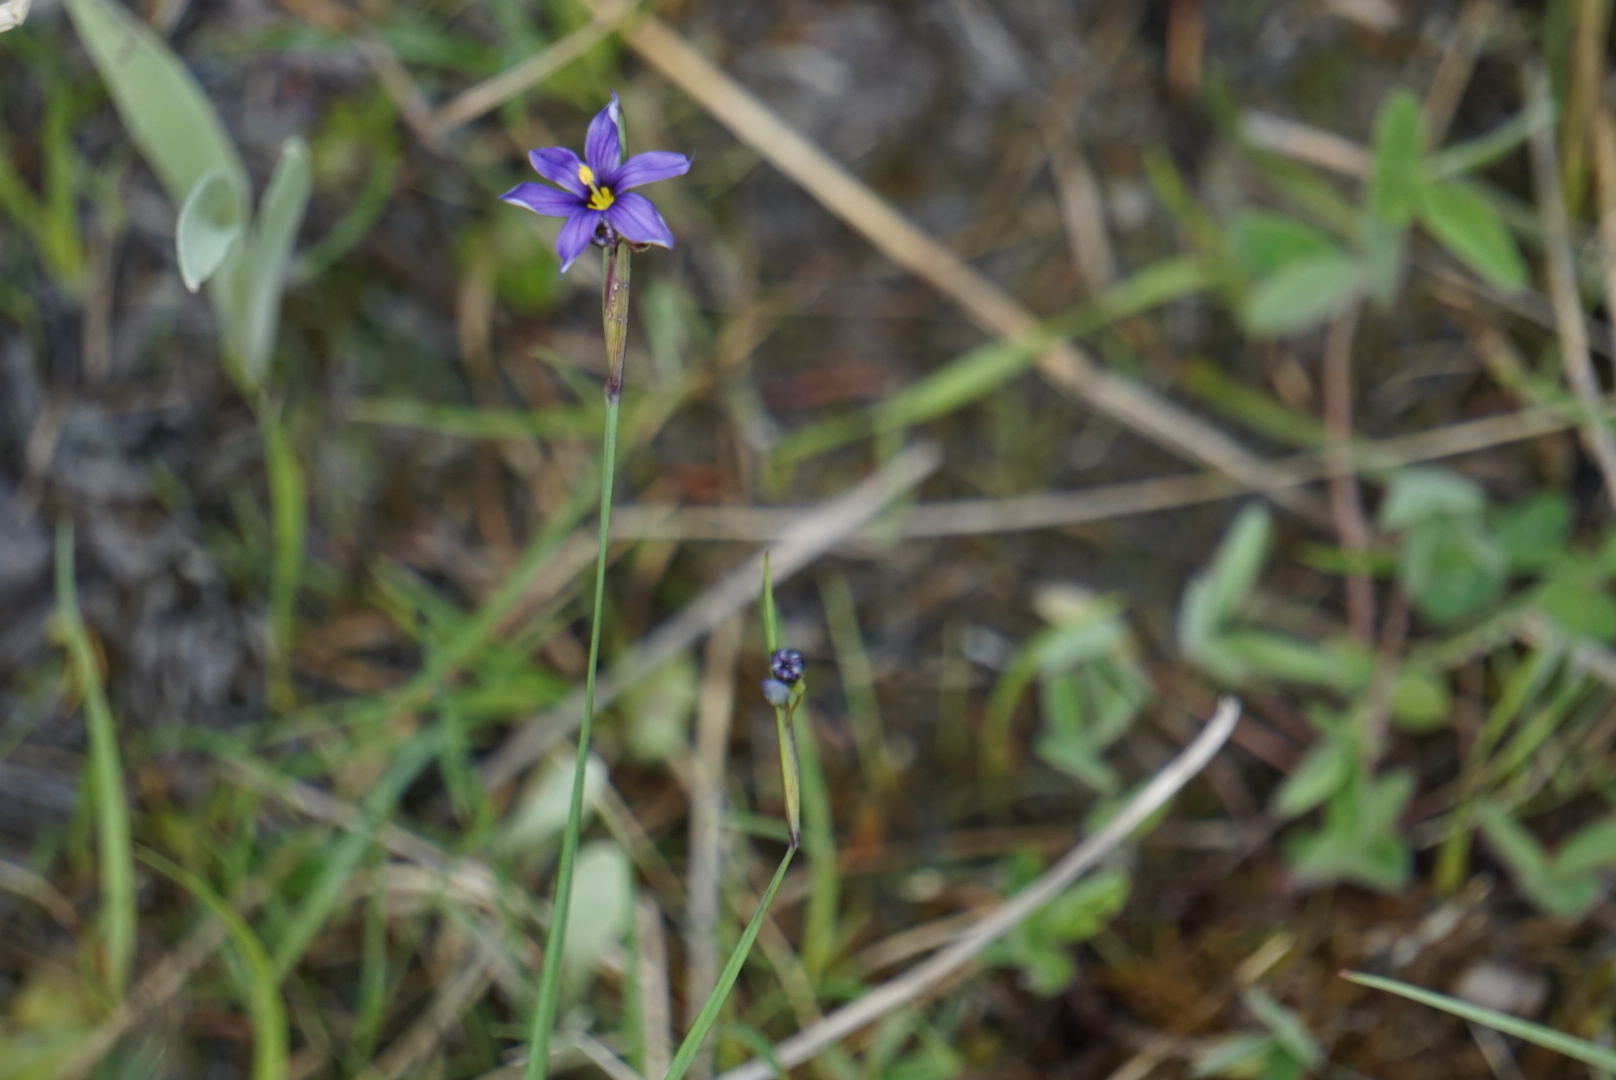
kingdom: Plantae
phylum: Tracheophyta
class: Liliopsida
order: Asparagales
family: Iridaceae
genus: Sisyrinchium
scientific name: Sisyrinchium montanum
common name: American blue-eyed-grass
